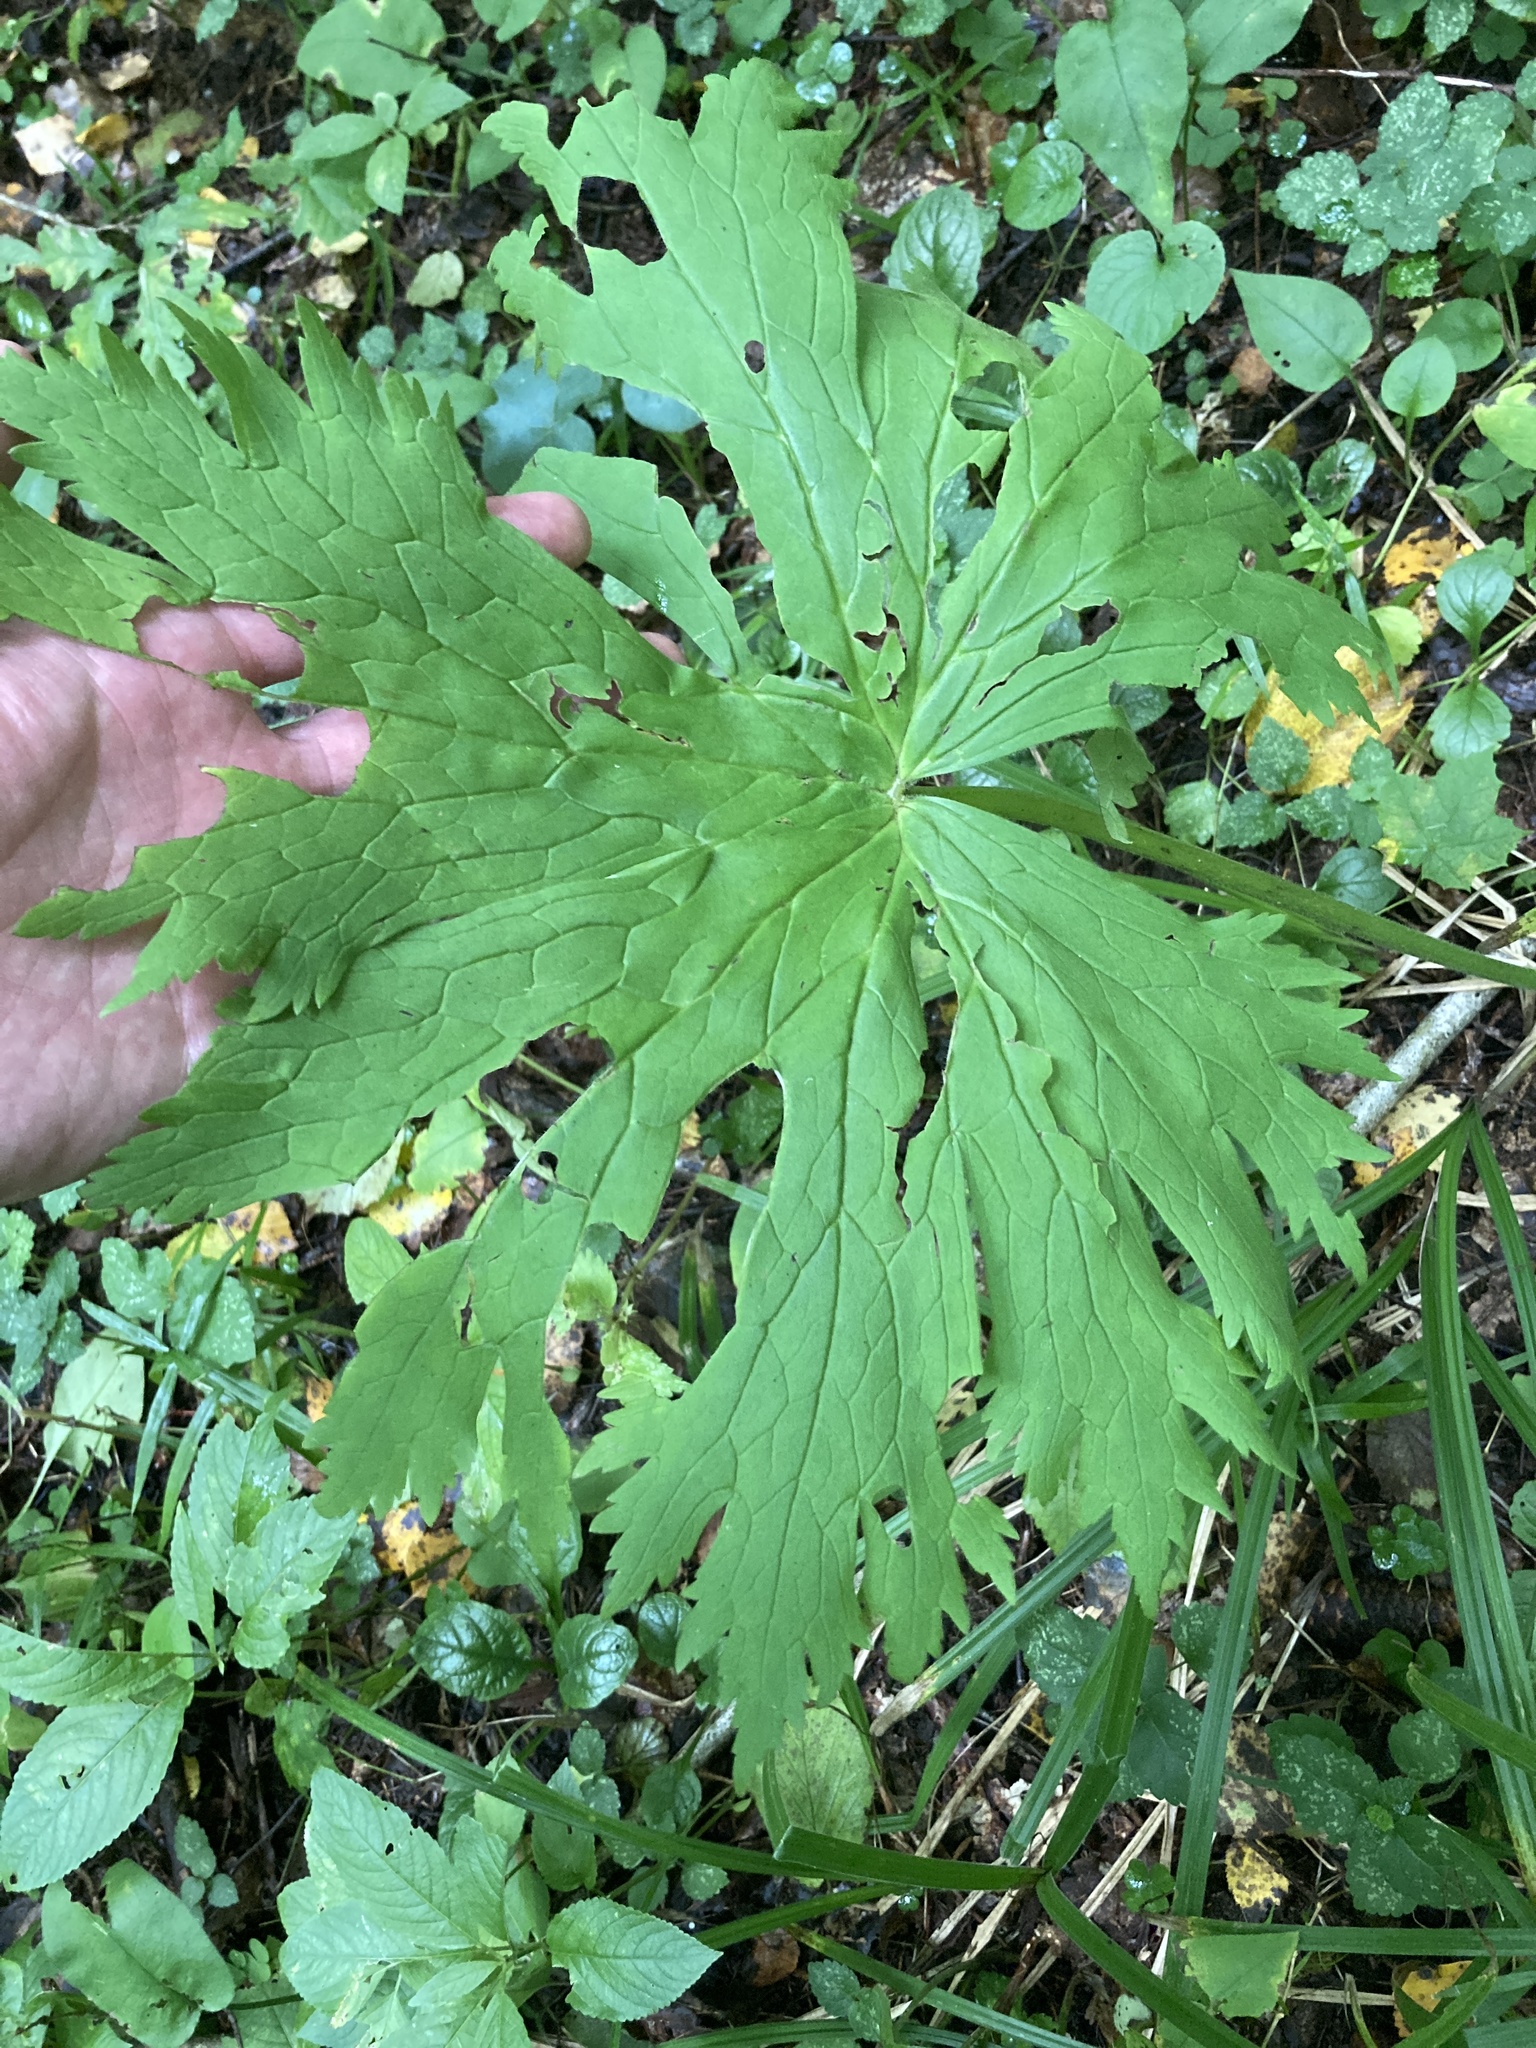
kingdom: Plantae
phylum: Tracheophyta
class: Magnoliopsida
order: Ranunculales
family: Ranunculaceae
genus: Aconitum
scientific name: Aconitum septentrionale
